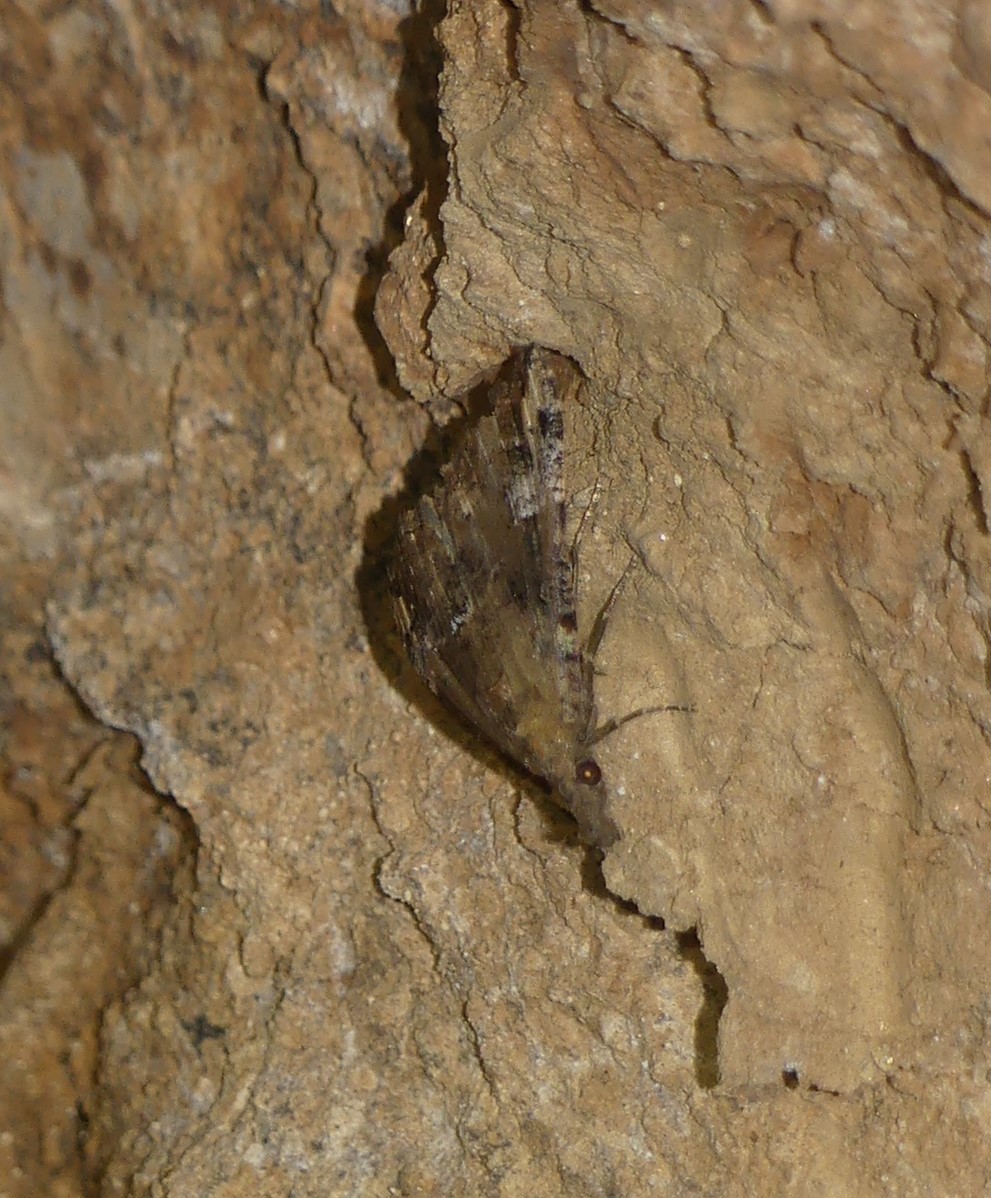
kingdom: Animalia
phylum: Arthropoda
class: Insecta
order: Lepidoptera
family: Erebidae
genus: Hypena
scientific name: Hypena obsitalis
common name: Bloxworth snout
